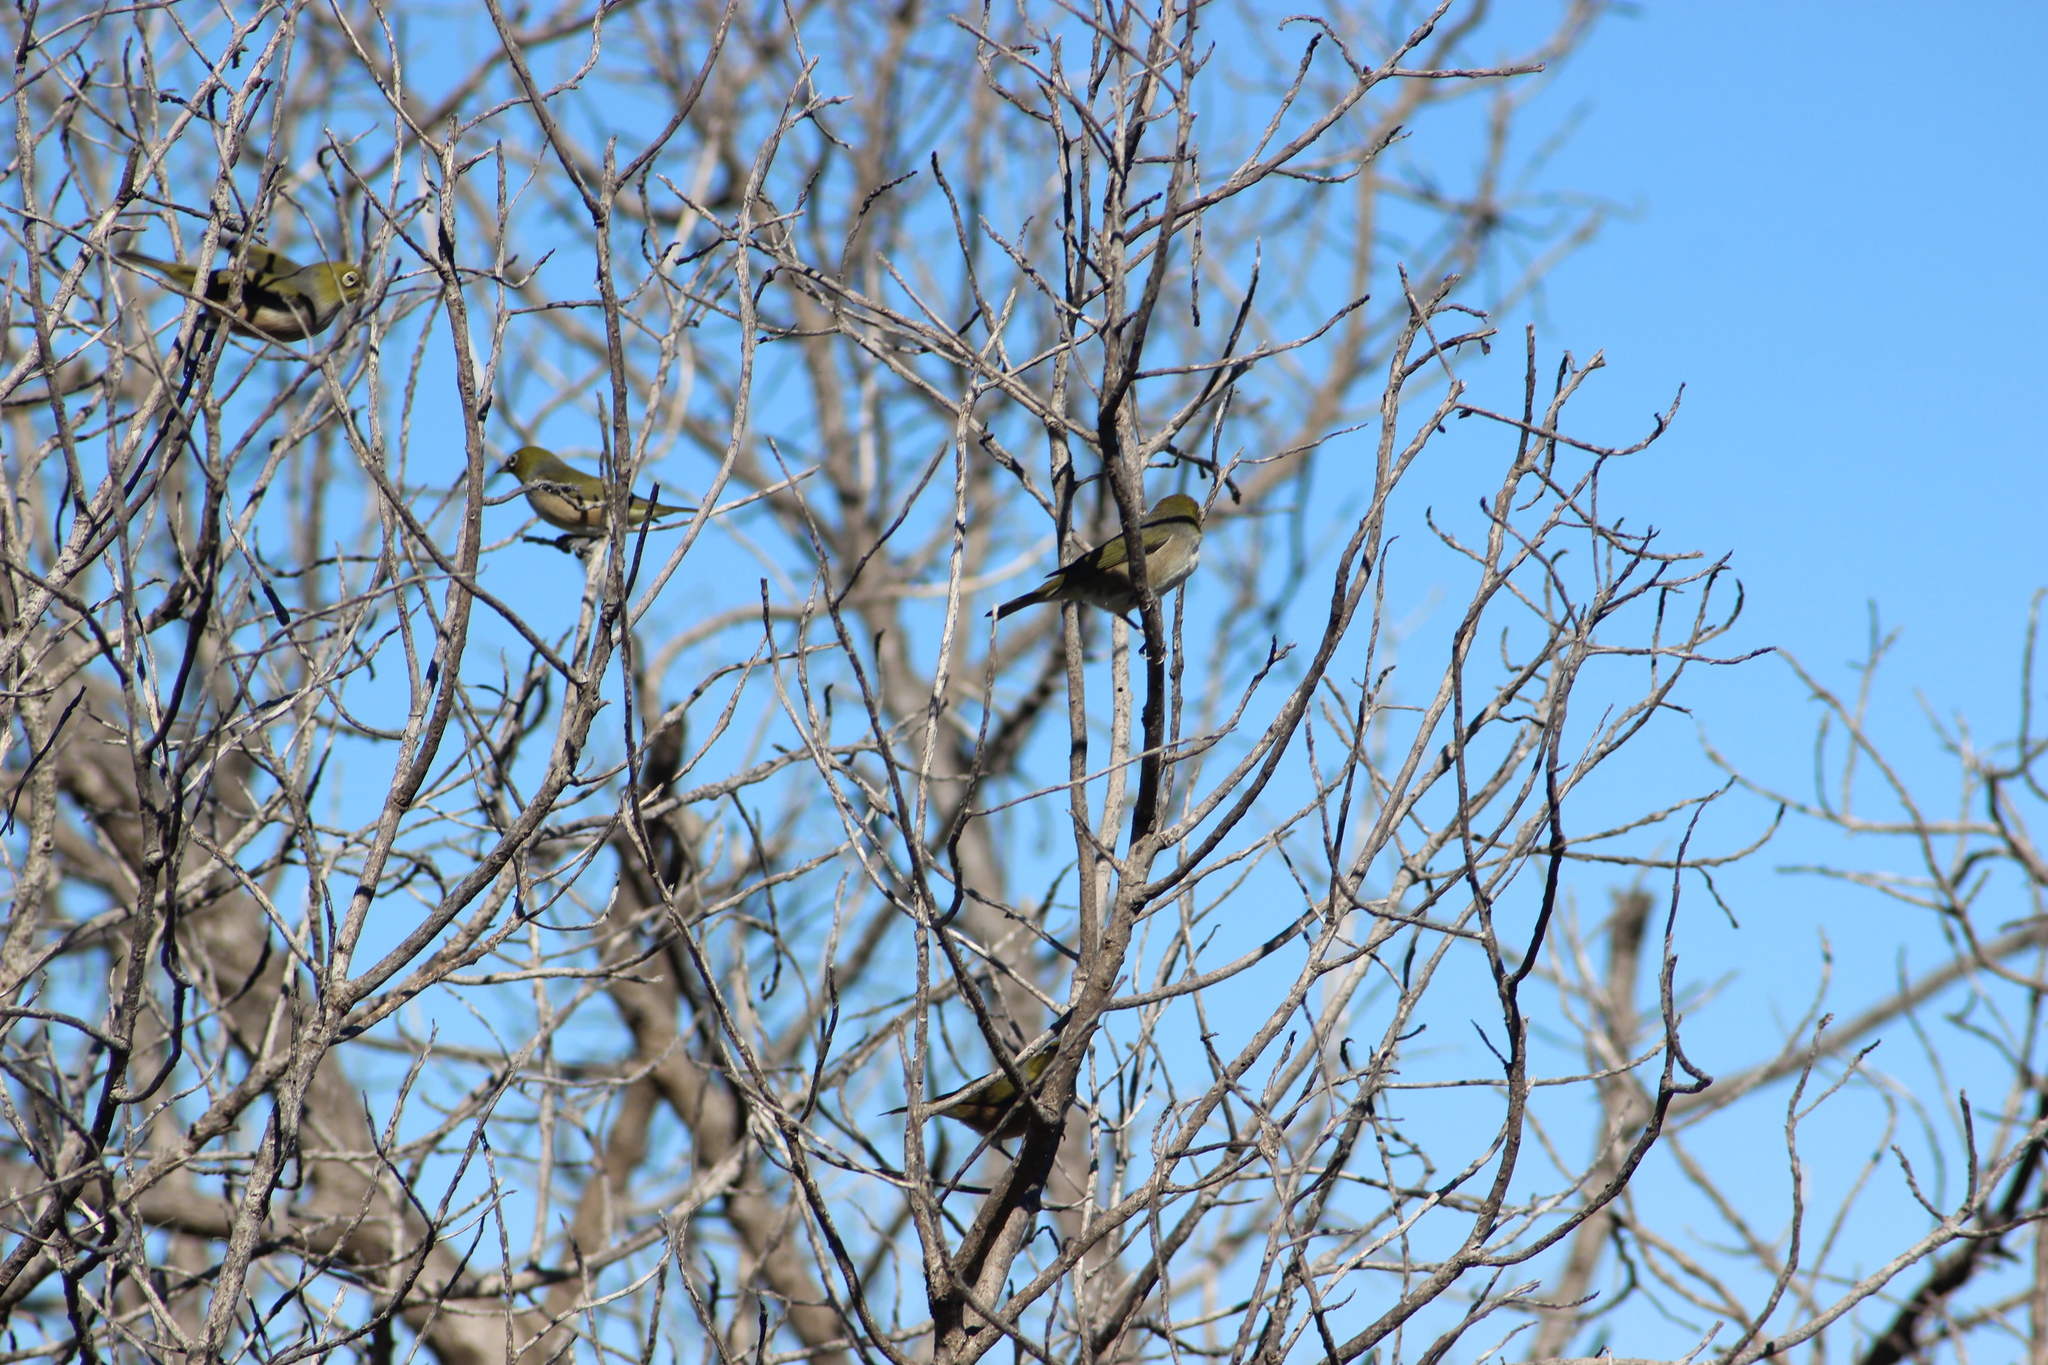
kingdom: Animalia
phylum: Chordata
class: Aves
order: Passeriformes
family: Zosteropidae
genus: Zosterops
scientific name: Zosterops lateralis
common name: Silvereye
